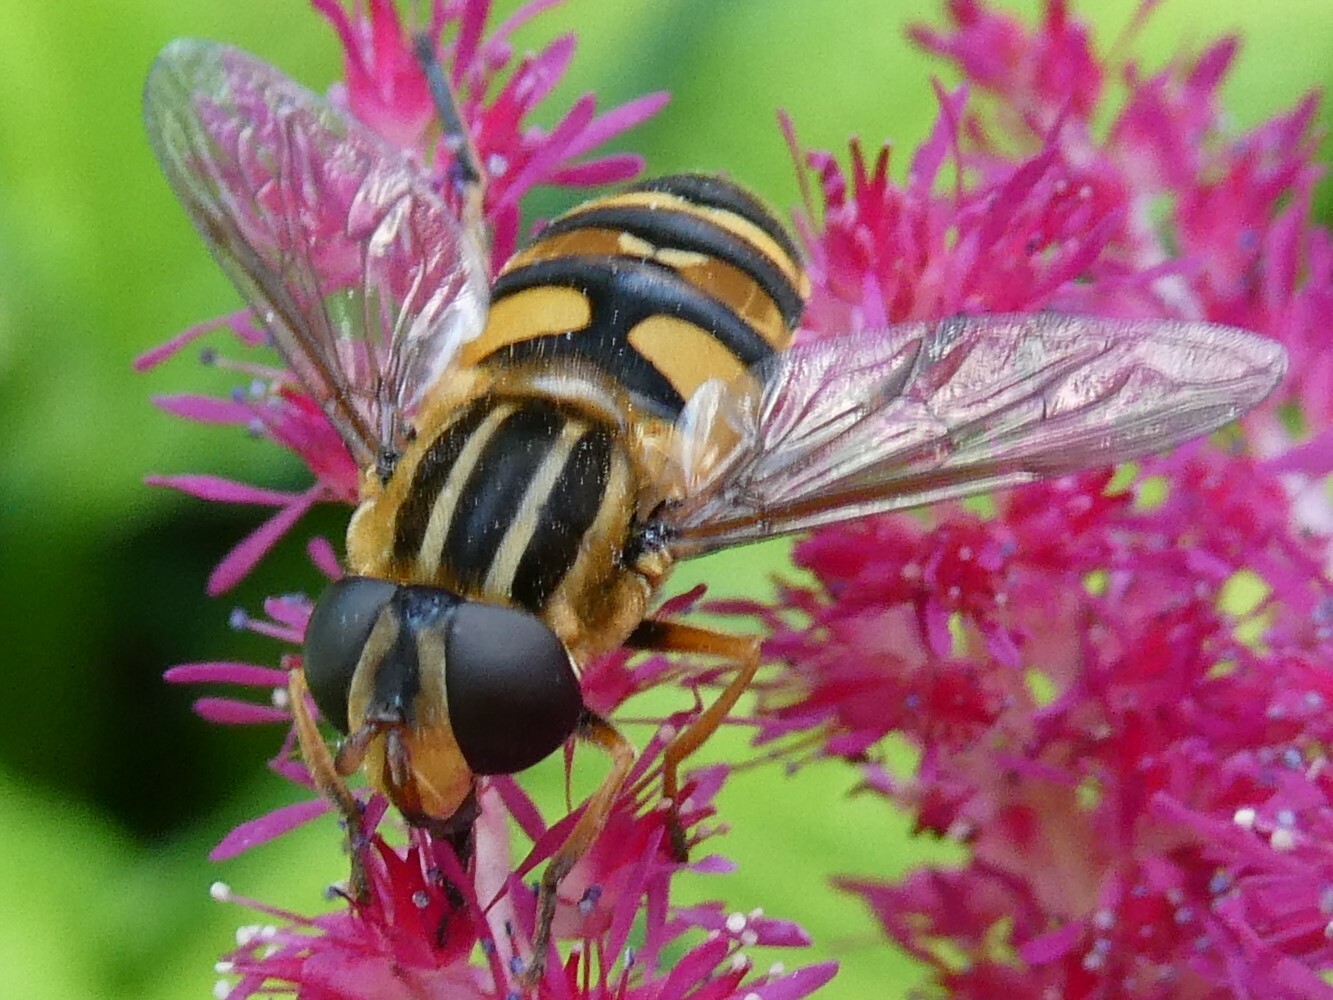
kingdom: Animalia
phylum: Arthropoda
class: Insecta
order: Diptera
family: Syrphidae
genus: Helophilus
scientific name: Helophilus fasciatus
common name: Narrow-headed marsh fly
